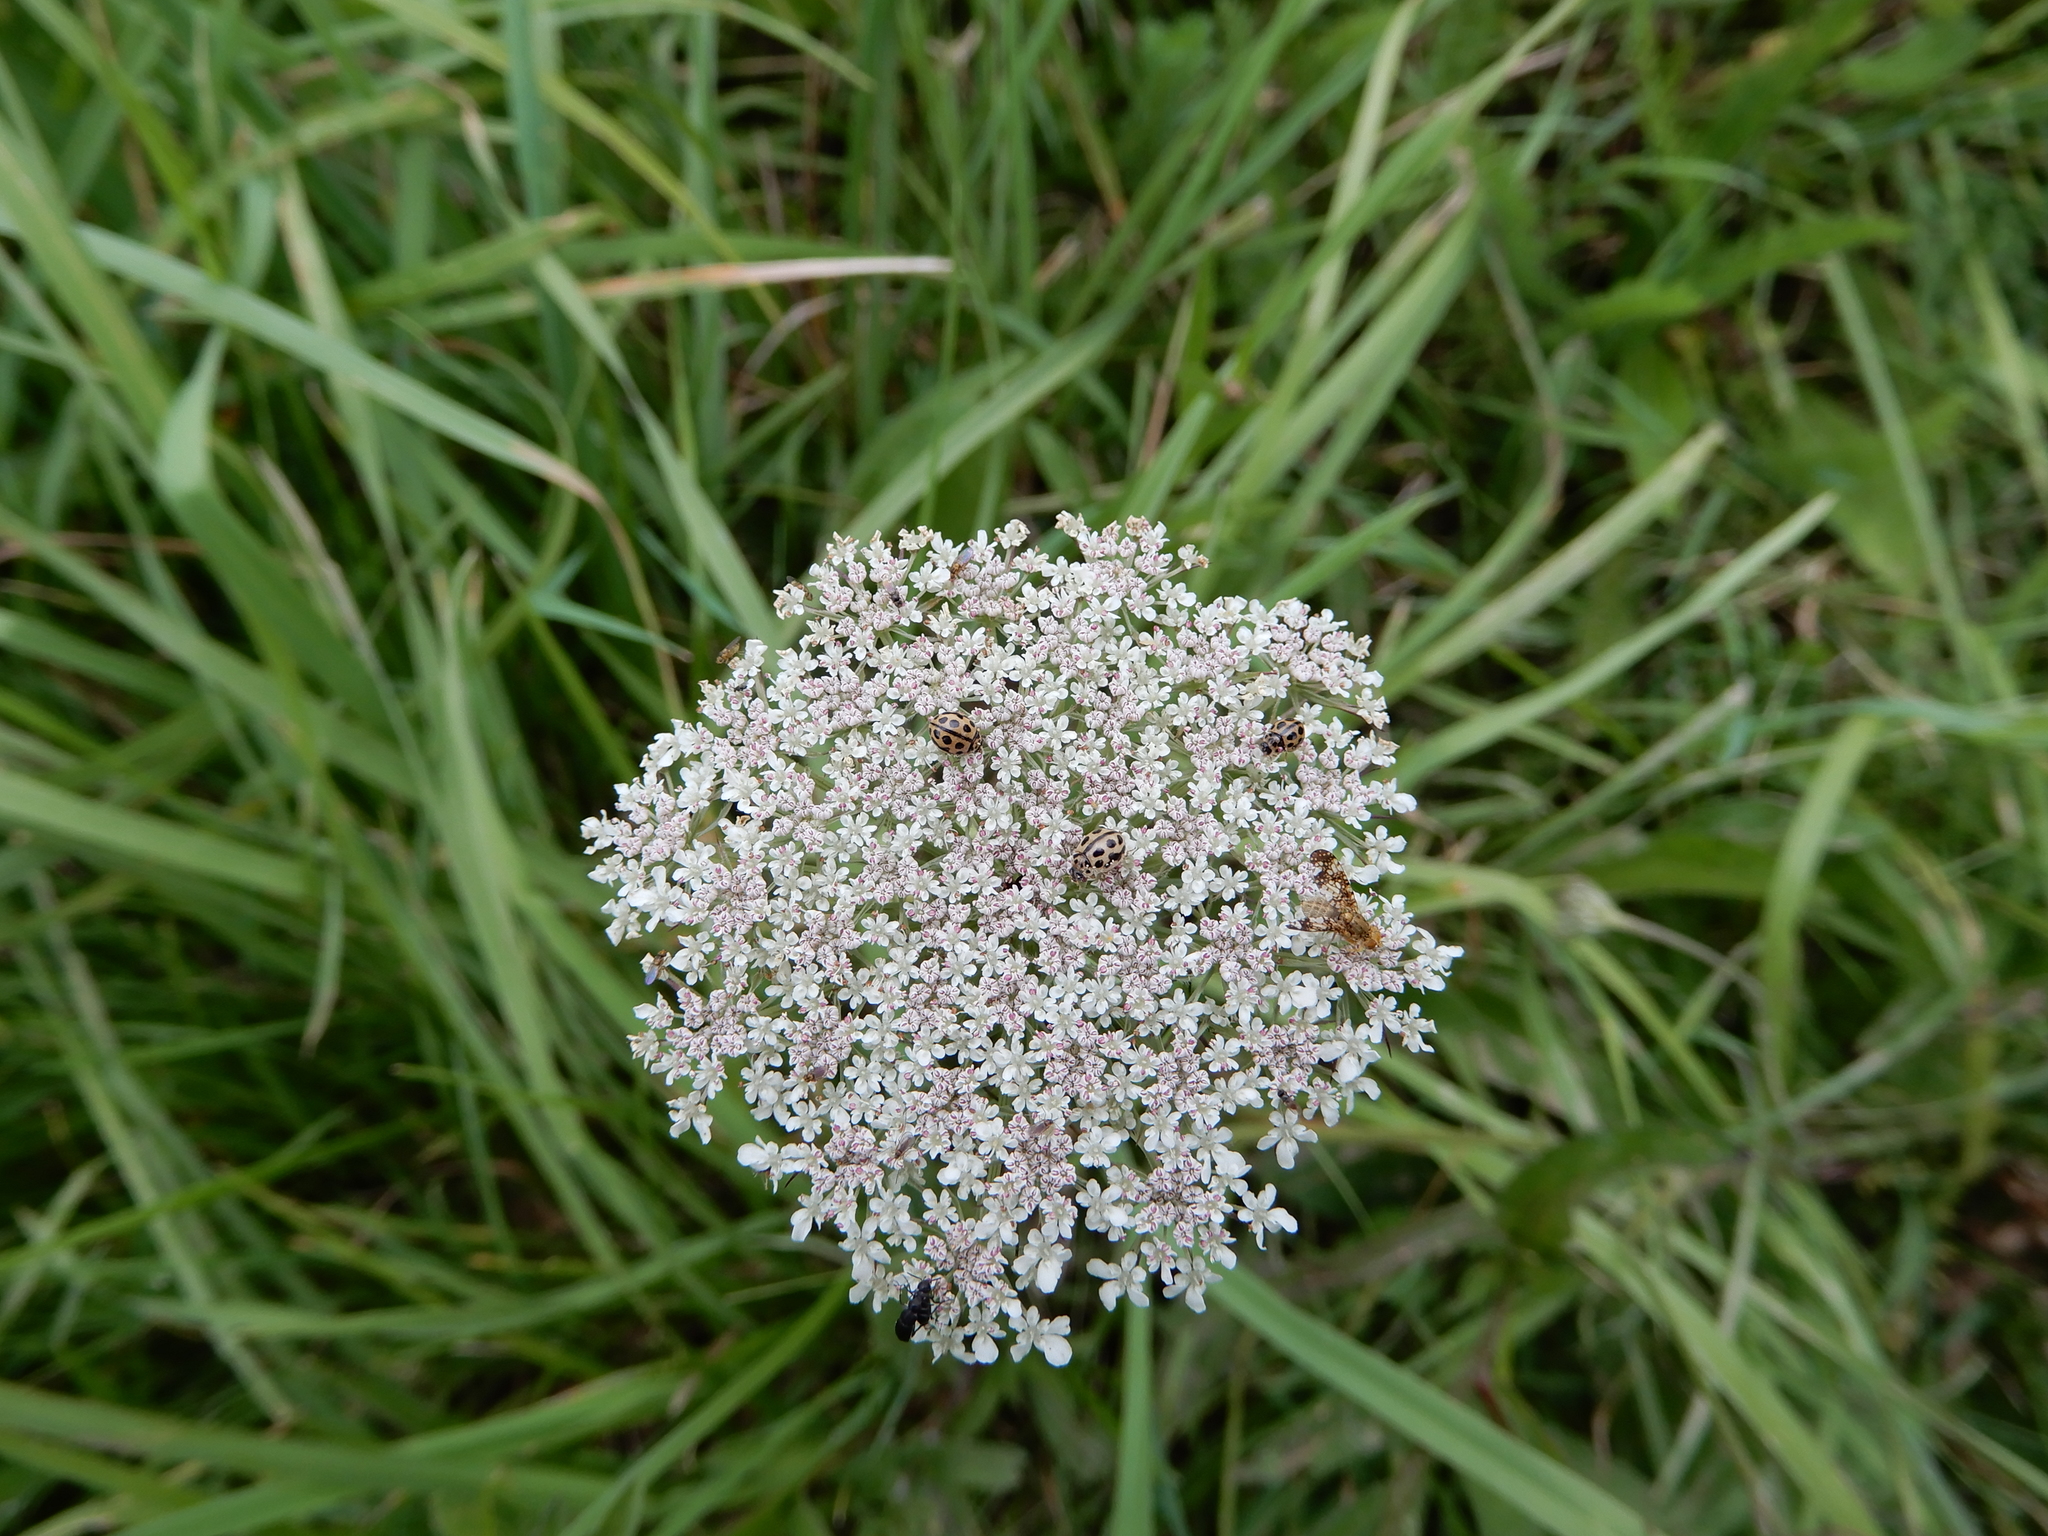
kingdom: Animalia
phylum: Arthropoda
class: Insecta
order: Coleoptera
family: Coccinellidae
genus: Tytthaspis
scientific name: Tytthaspis sedecimpunctata
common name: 16-spot ladybird
